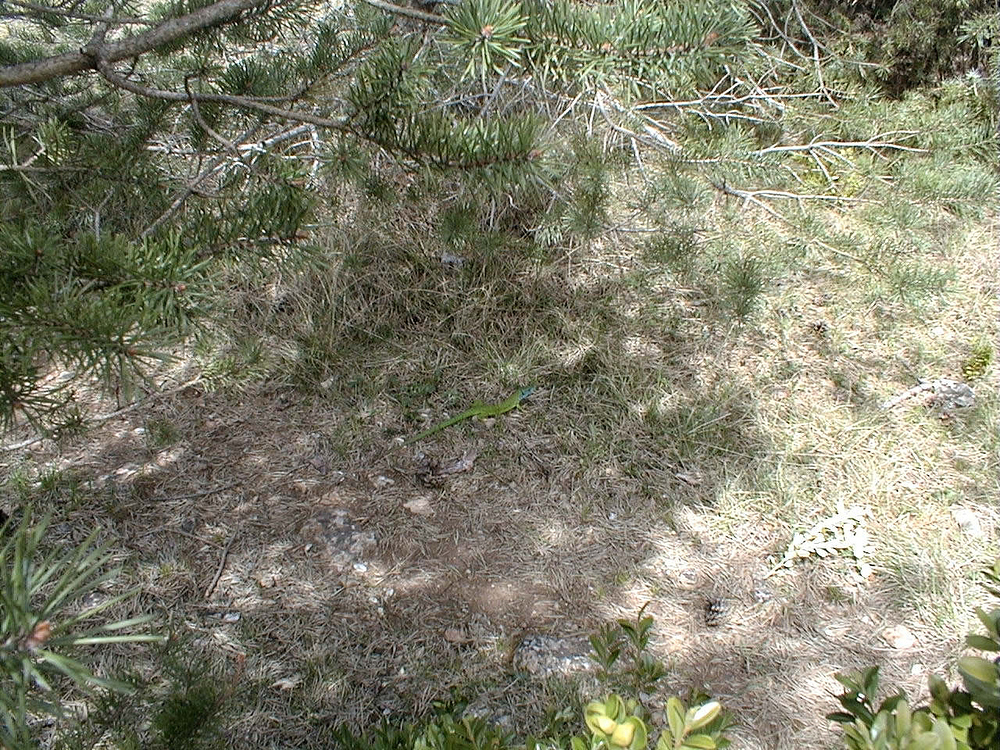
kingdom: Animalia
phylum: Chordata
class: Squamata
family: Lacertidae
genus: Lacerta
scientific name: Lacerta bilineata
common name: Western green lizard
